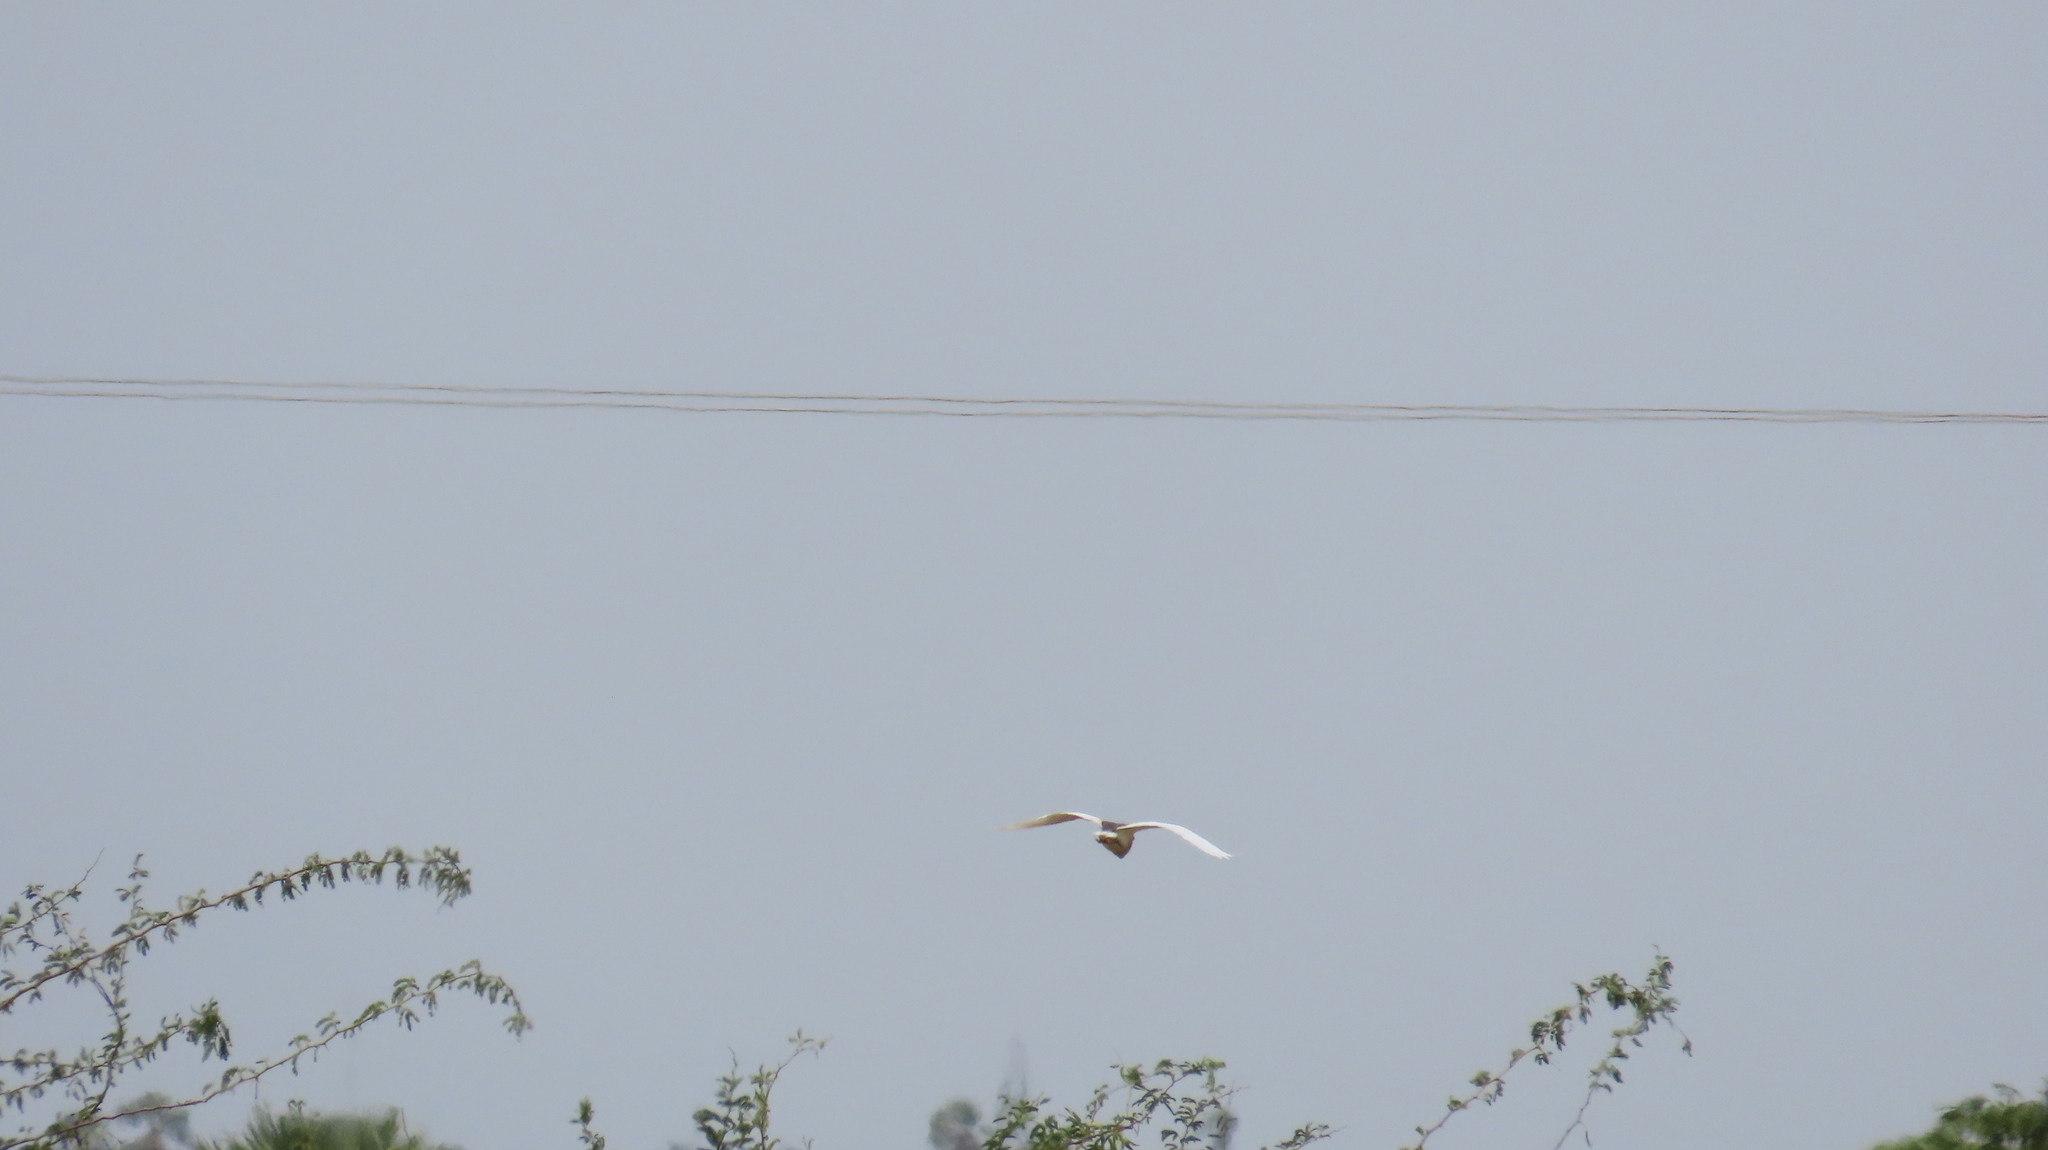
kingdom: Animalia
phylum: Chordata
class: Aves
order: Pelecaniformes
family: Ardeidae
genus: Ardeola
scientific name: Ardeola grayii
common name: Indian pond heron
